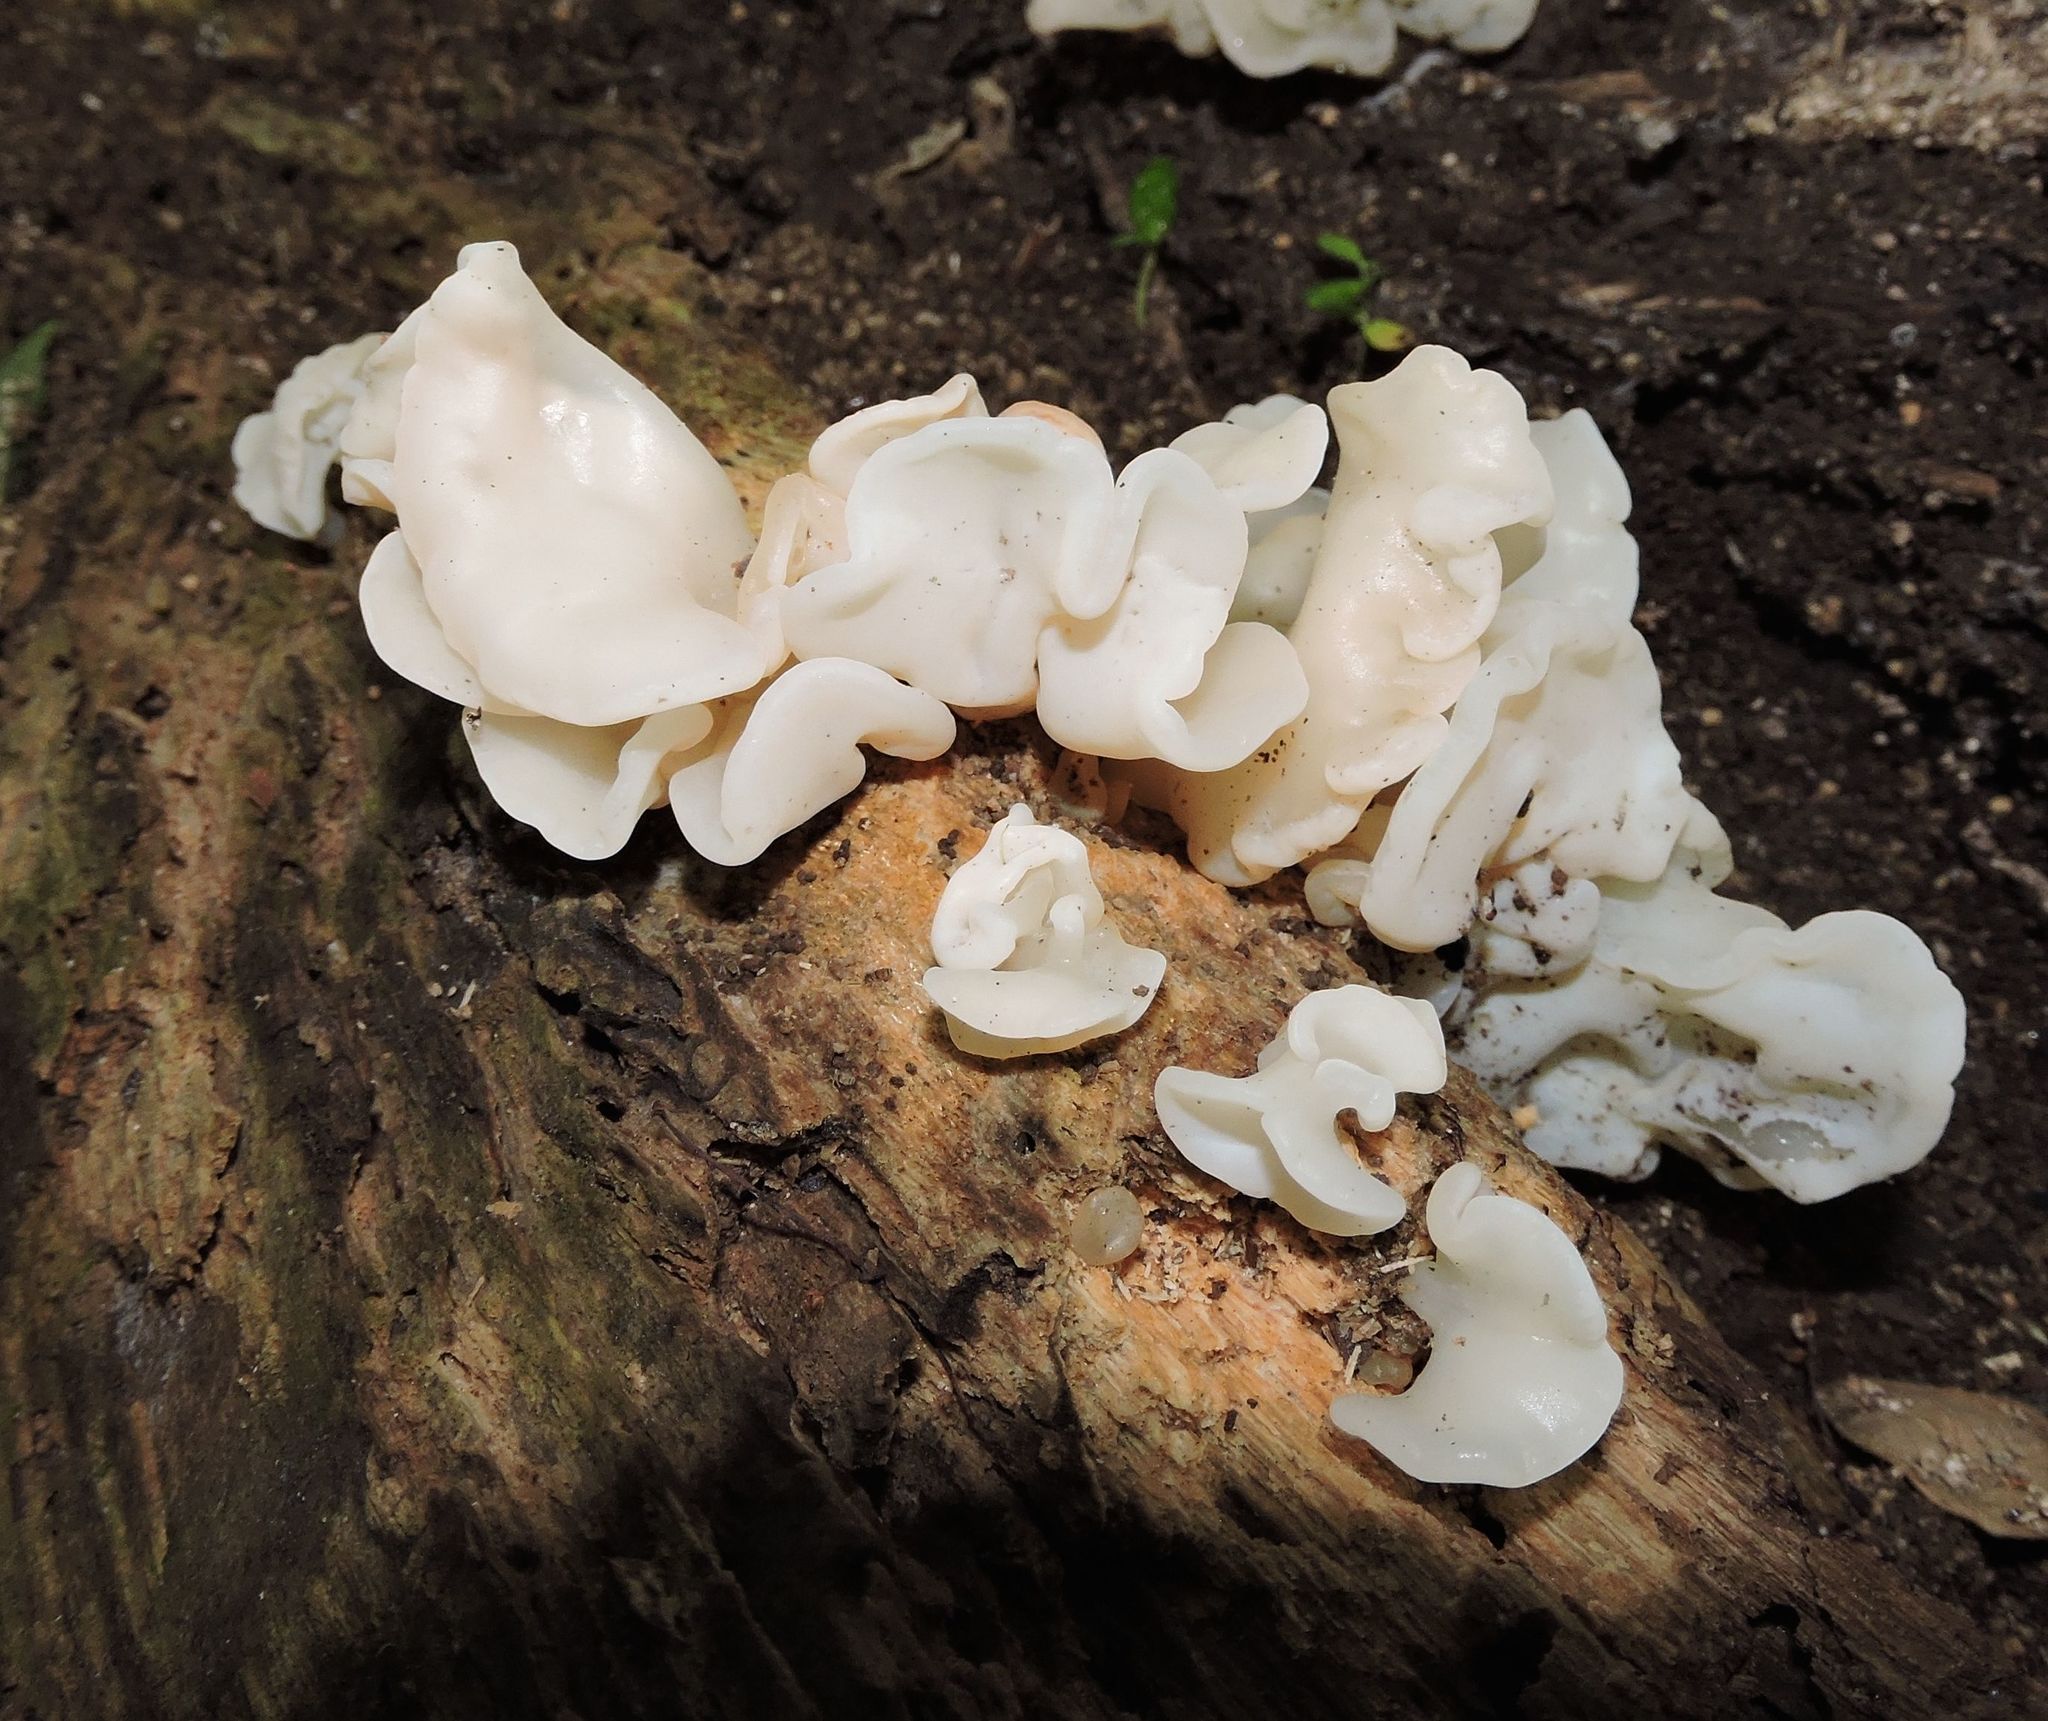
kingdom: Fungi
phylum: Basidiomycota
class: Agaricomycetes
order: Auriculariales
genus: Ductifera
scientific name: Ductifera pululahuana
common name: White jelly fungus
